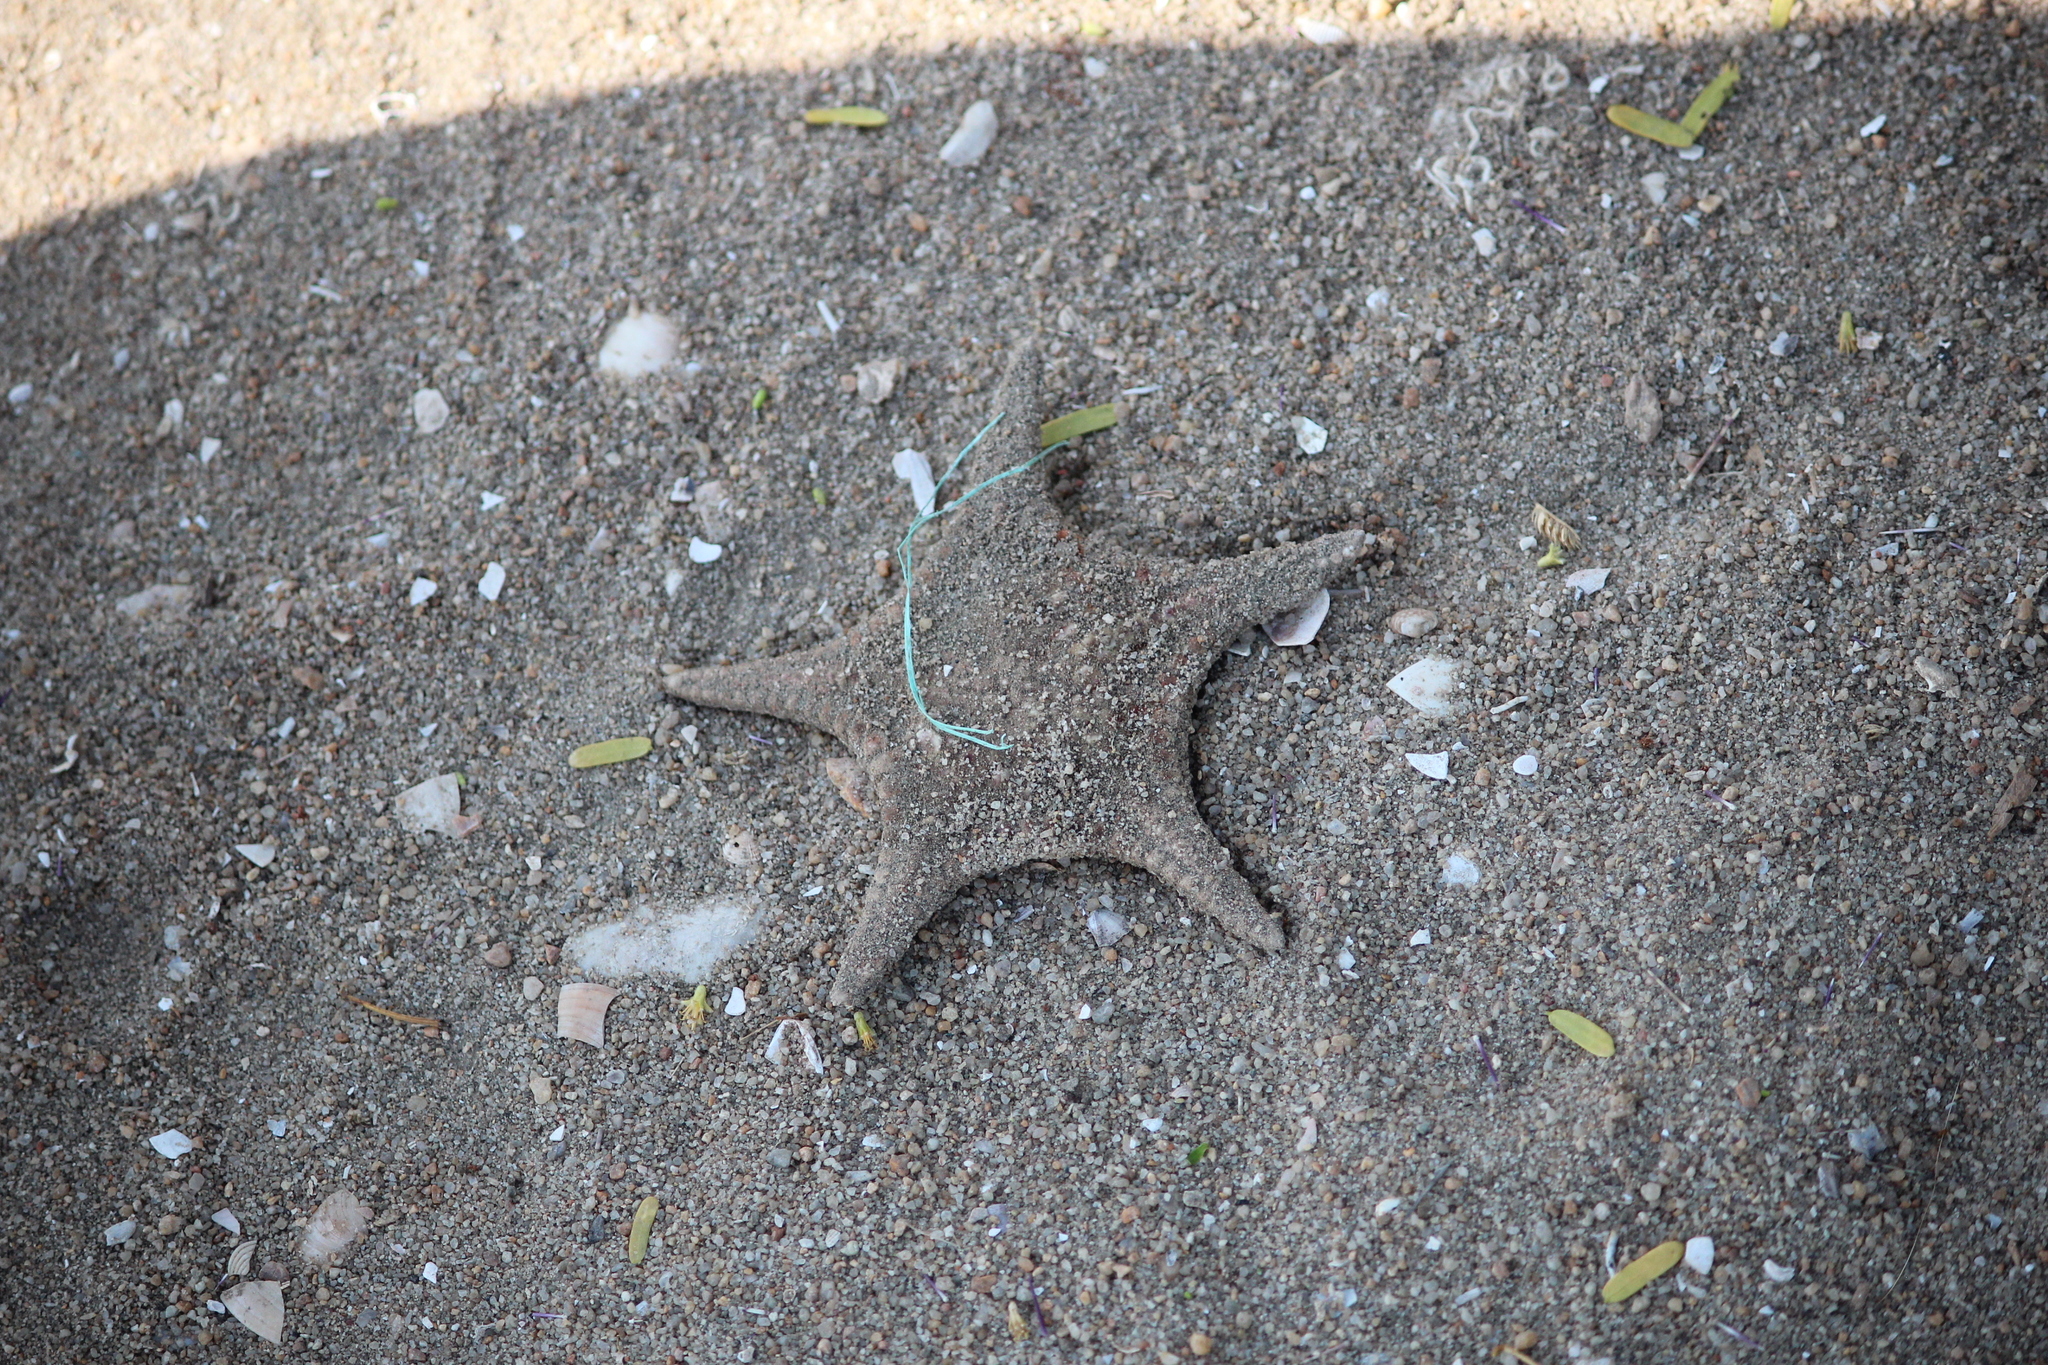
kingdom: Animalia
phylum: Echinodermata
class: Asteroidea
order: Valvatida
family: Goniasteridae
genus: Stellaster
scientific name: Stellaster childreni
